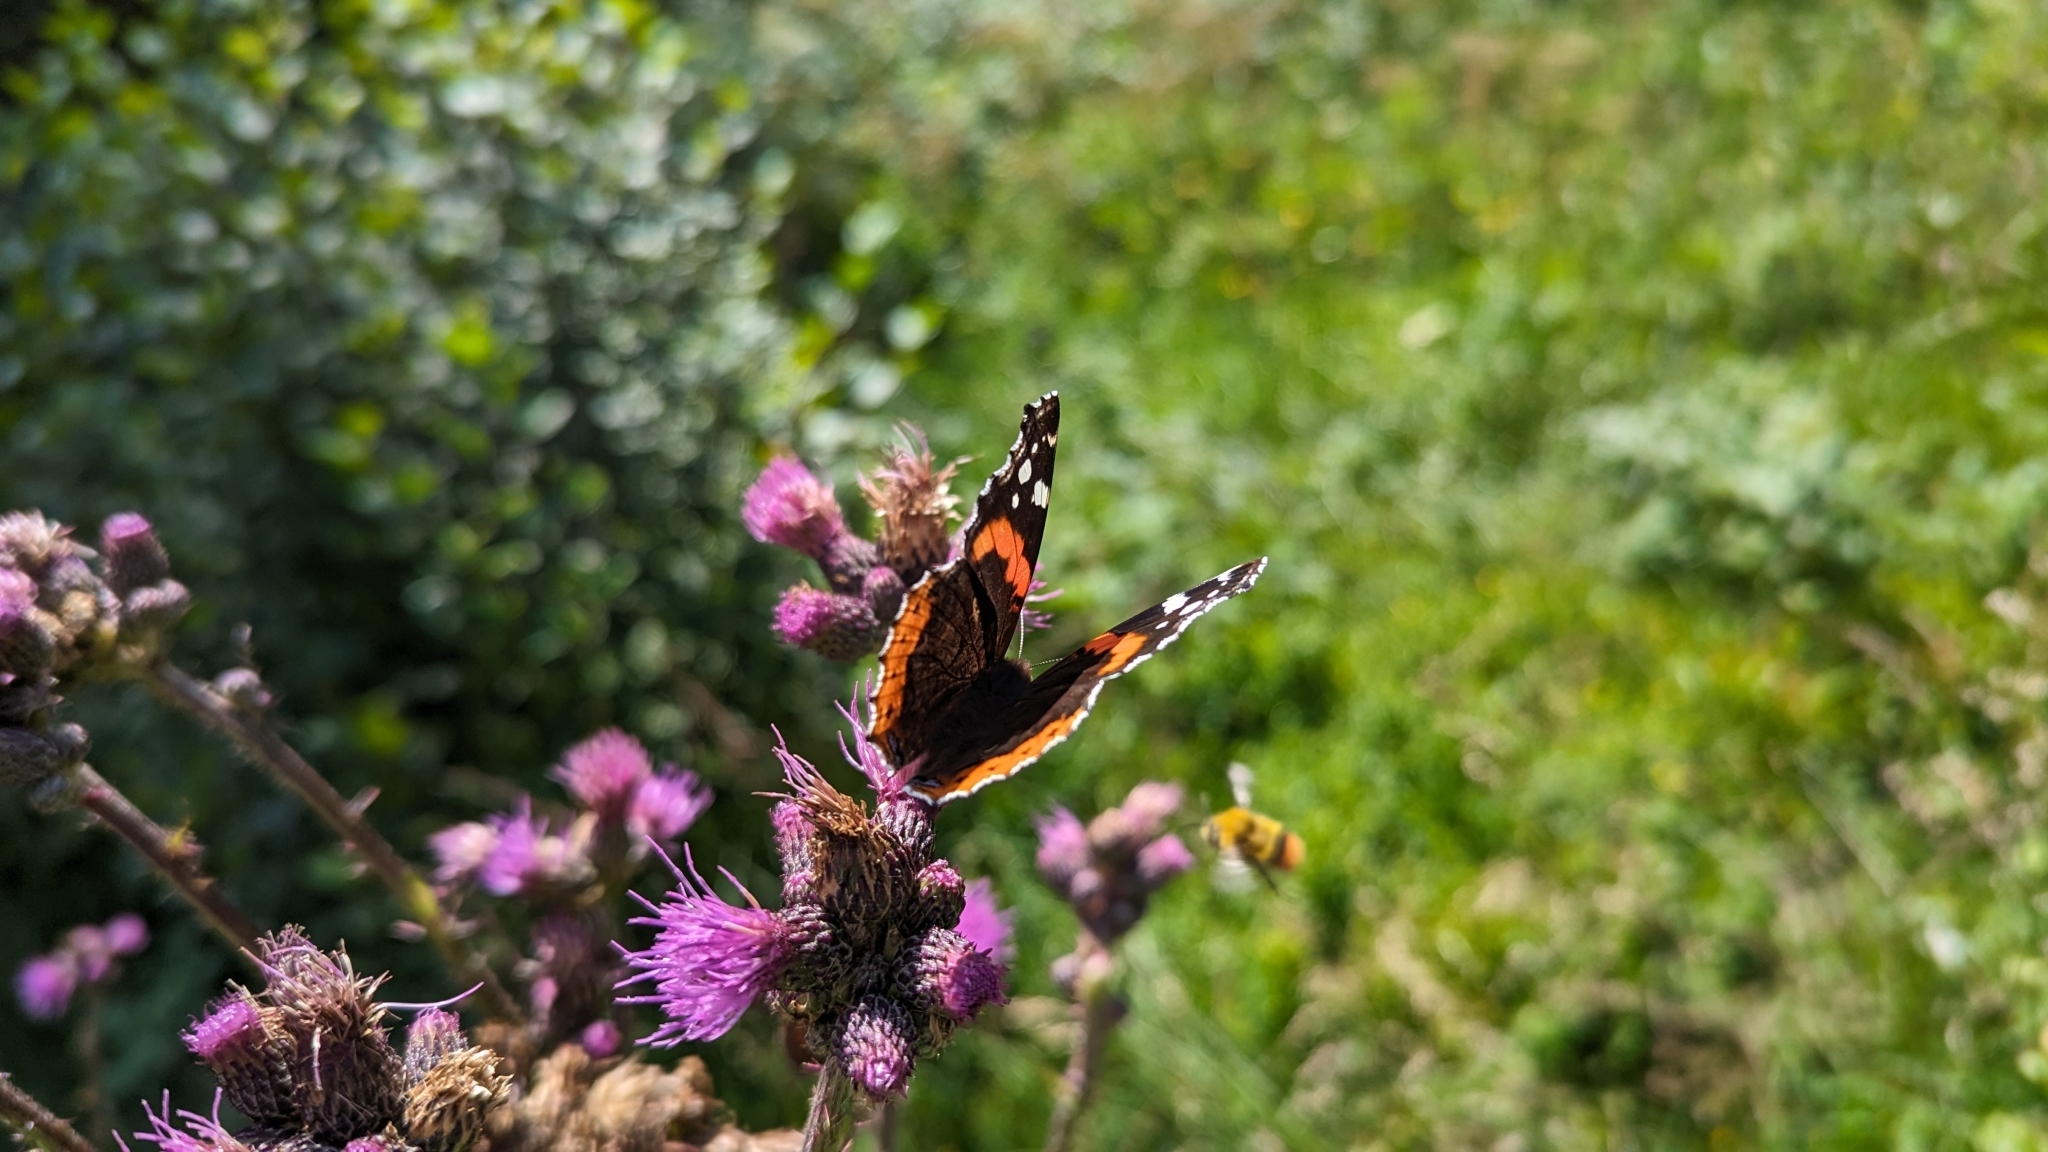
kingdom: Animalia
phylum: Arthropoda
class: Insecta
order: Lepidoptera
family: Nymphalidae
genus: Vanessa
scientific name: Vanessa atalanta
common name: Red admiral
